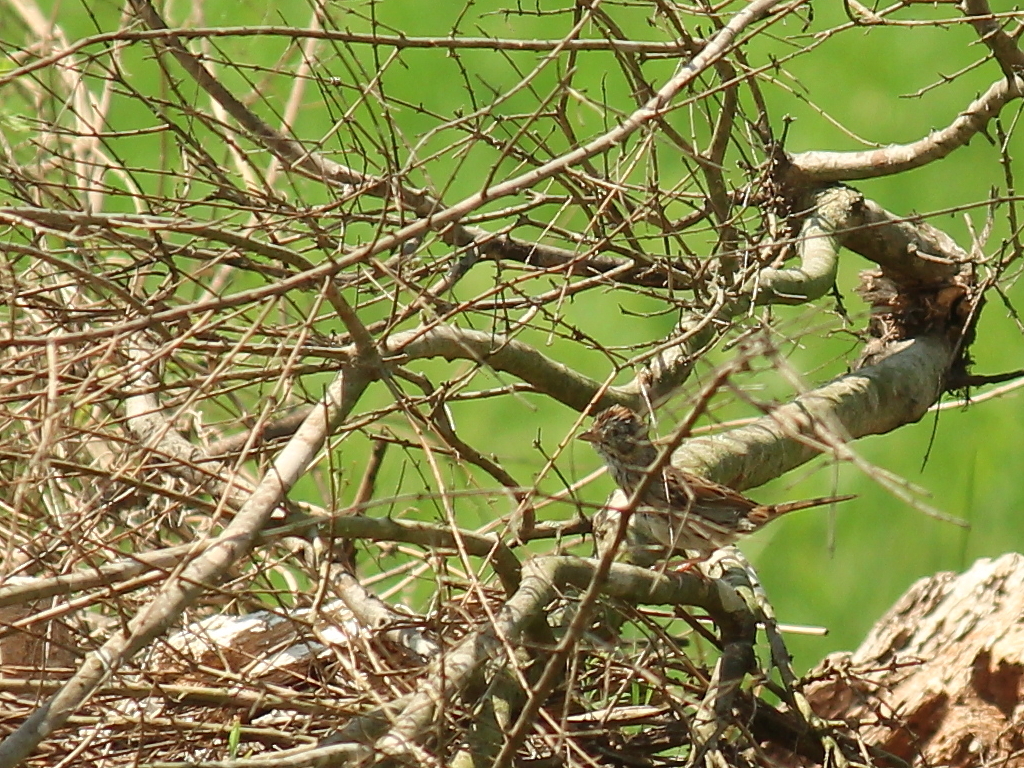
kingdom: Animalia
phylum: Chordata
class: Aves
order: Passeriformes
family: Passerellidae
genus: Melospiza
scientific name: Melospiza lincolnii
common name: Lincoln's sparrow
